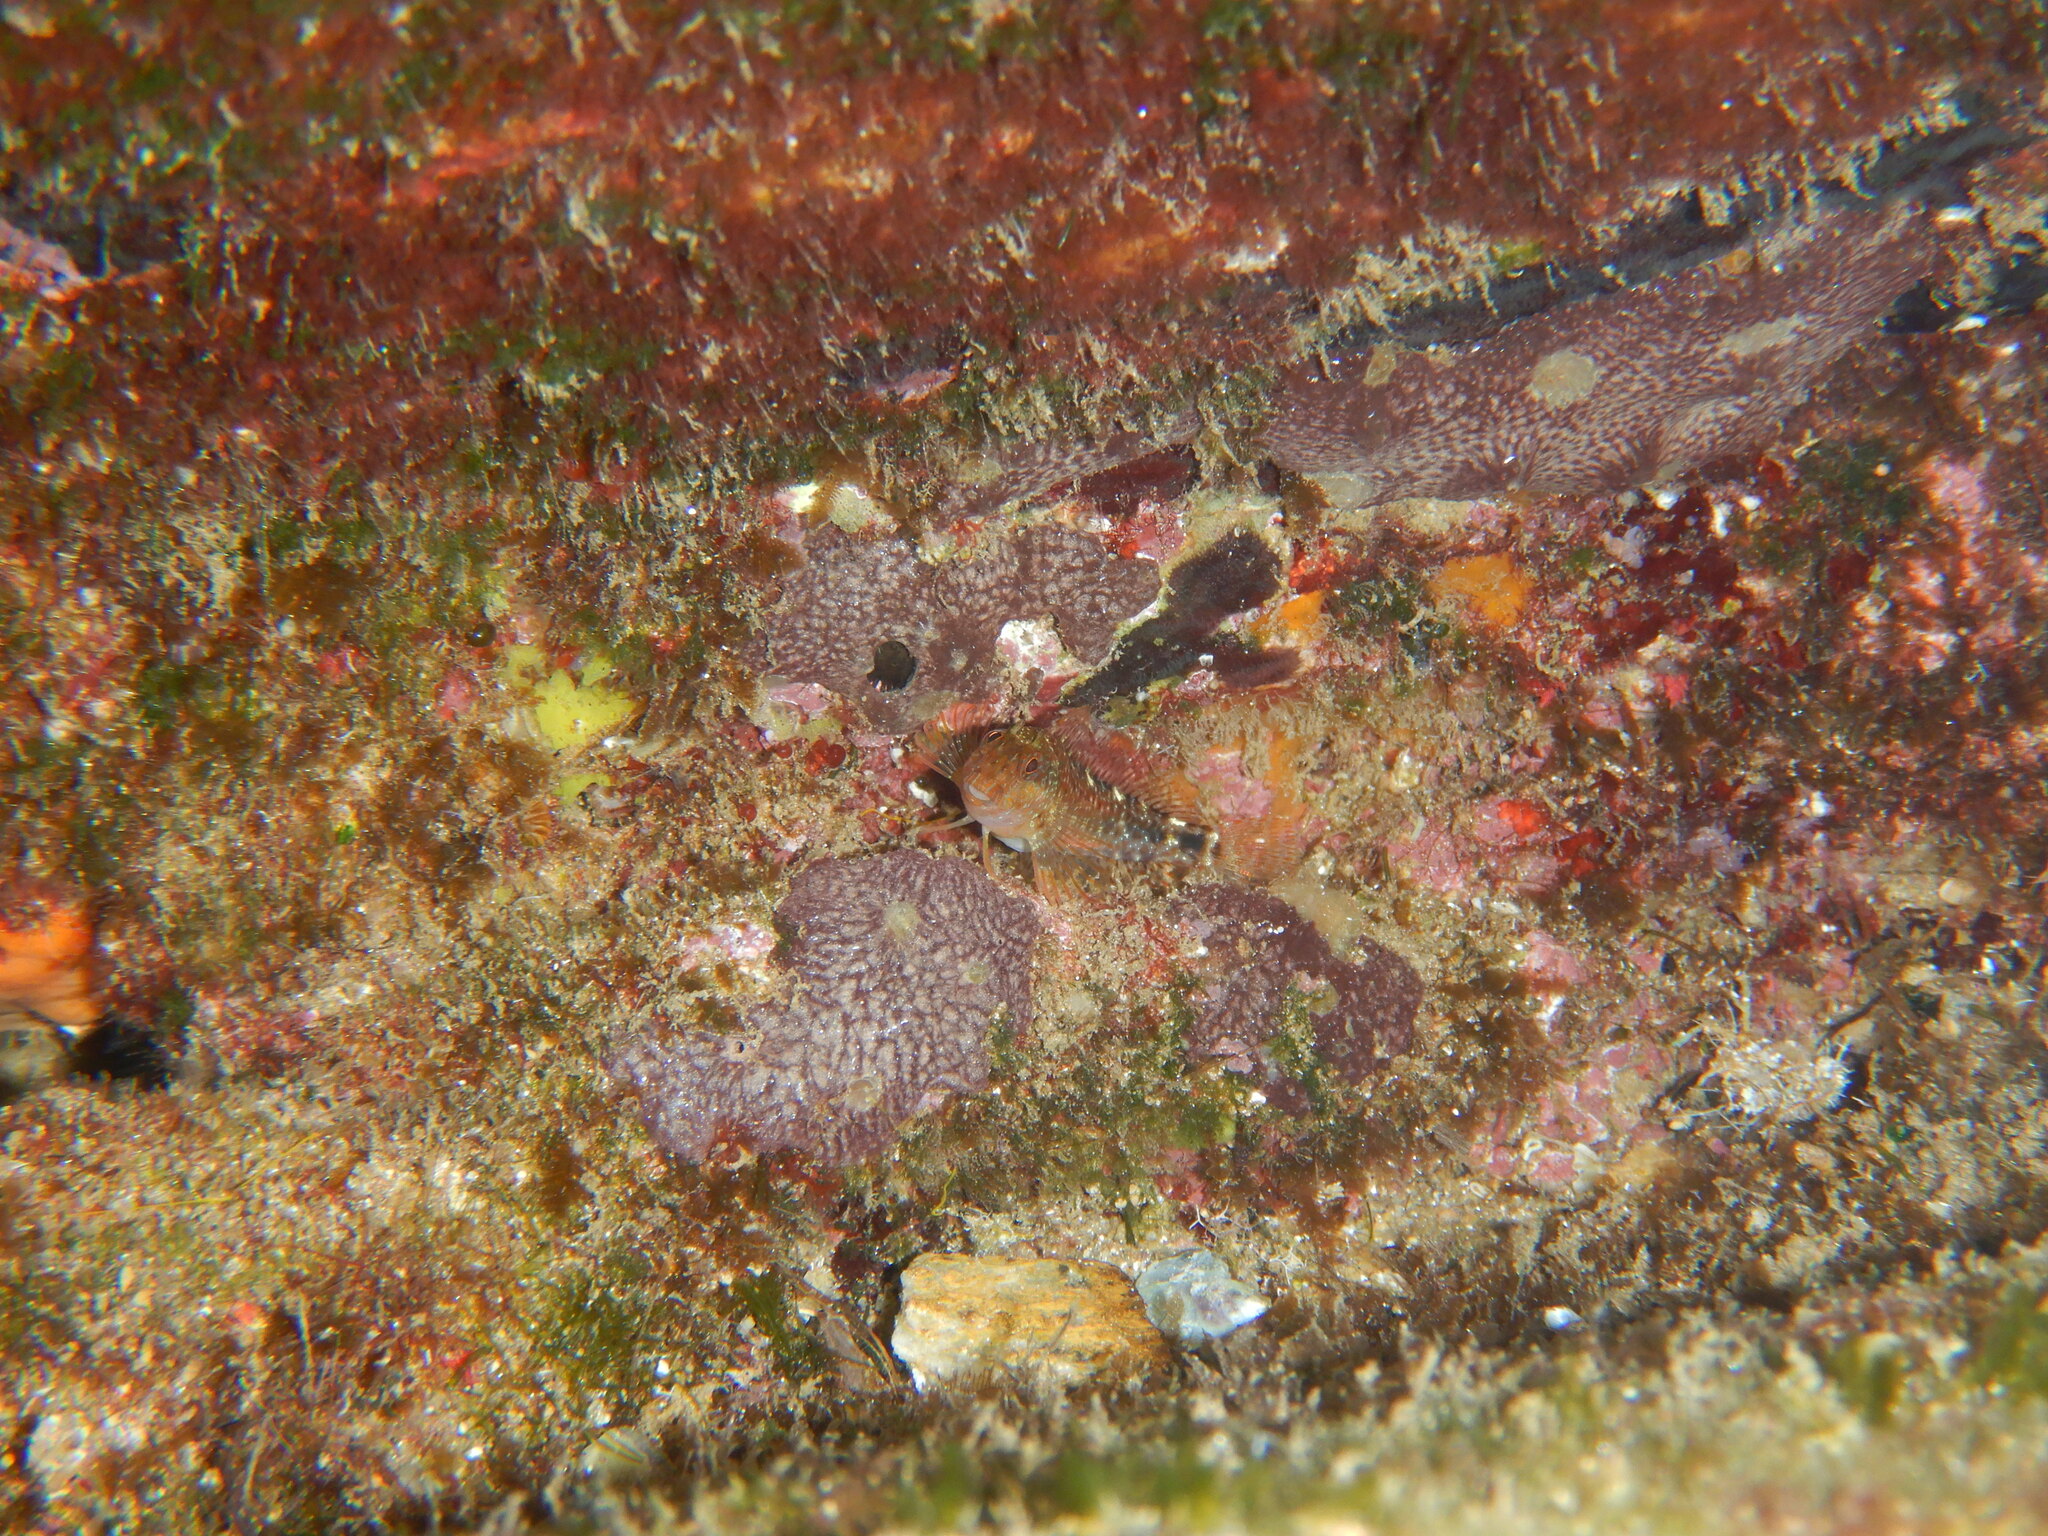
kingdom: Animalia
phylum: Porifera
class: Demospongiae
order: Dictyoceratida
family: Irciniidae
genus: Ircinia
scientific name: Ircinia variabilis
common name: Variable loggerhead sponge
